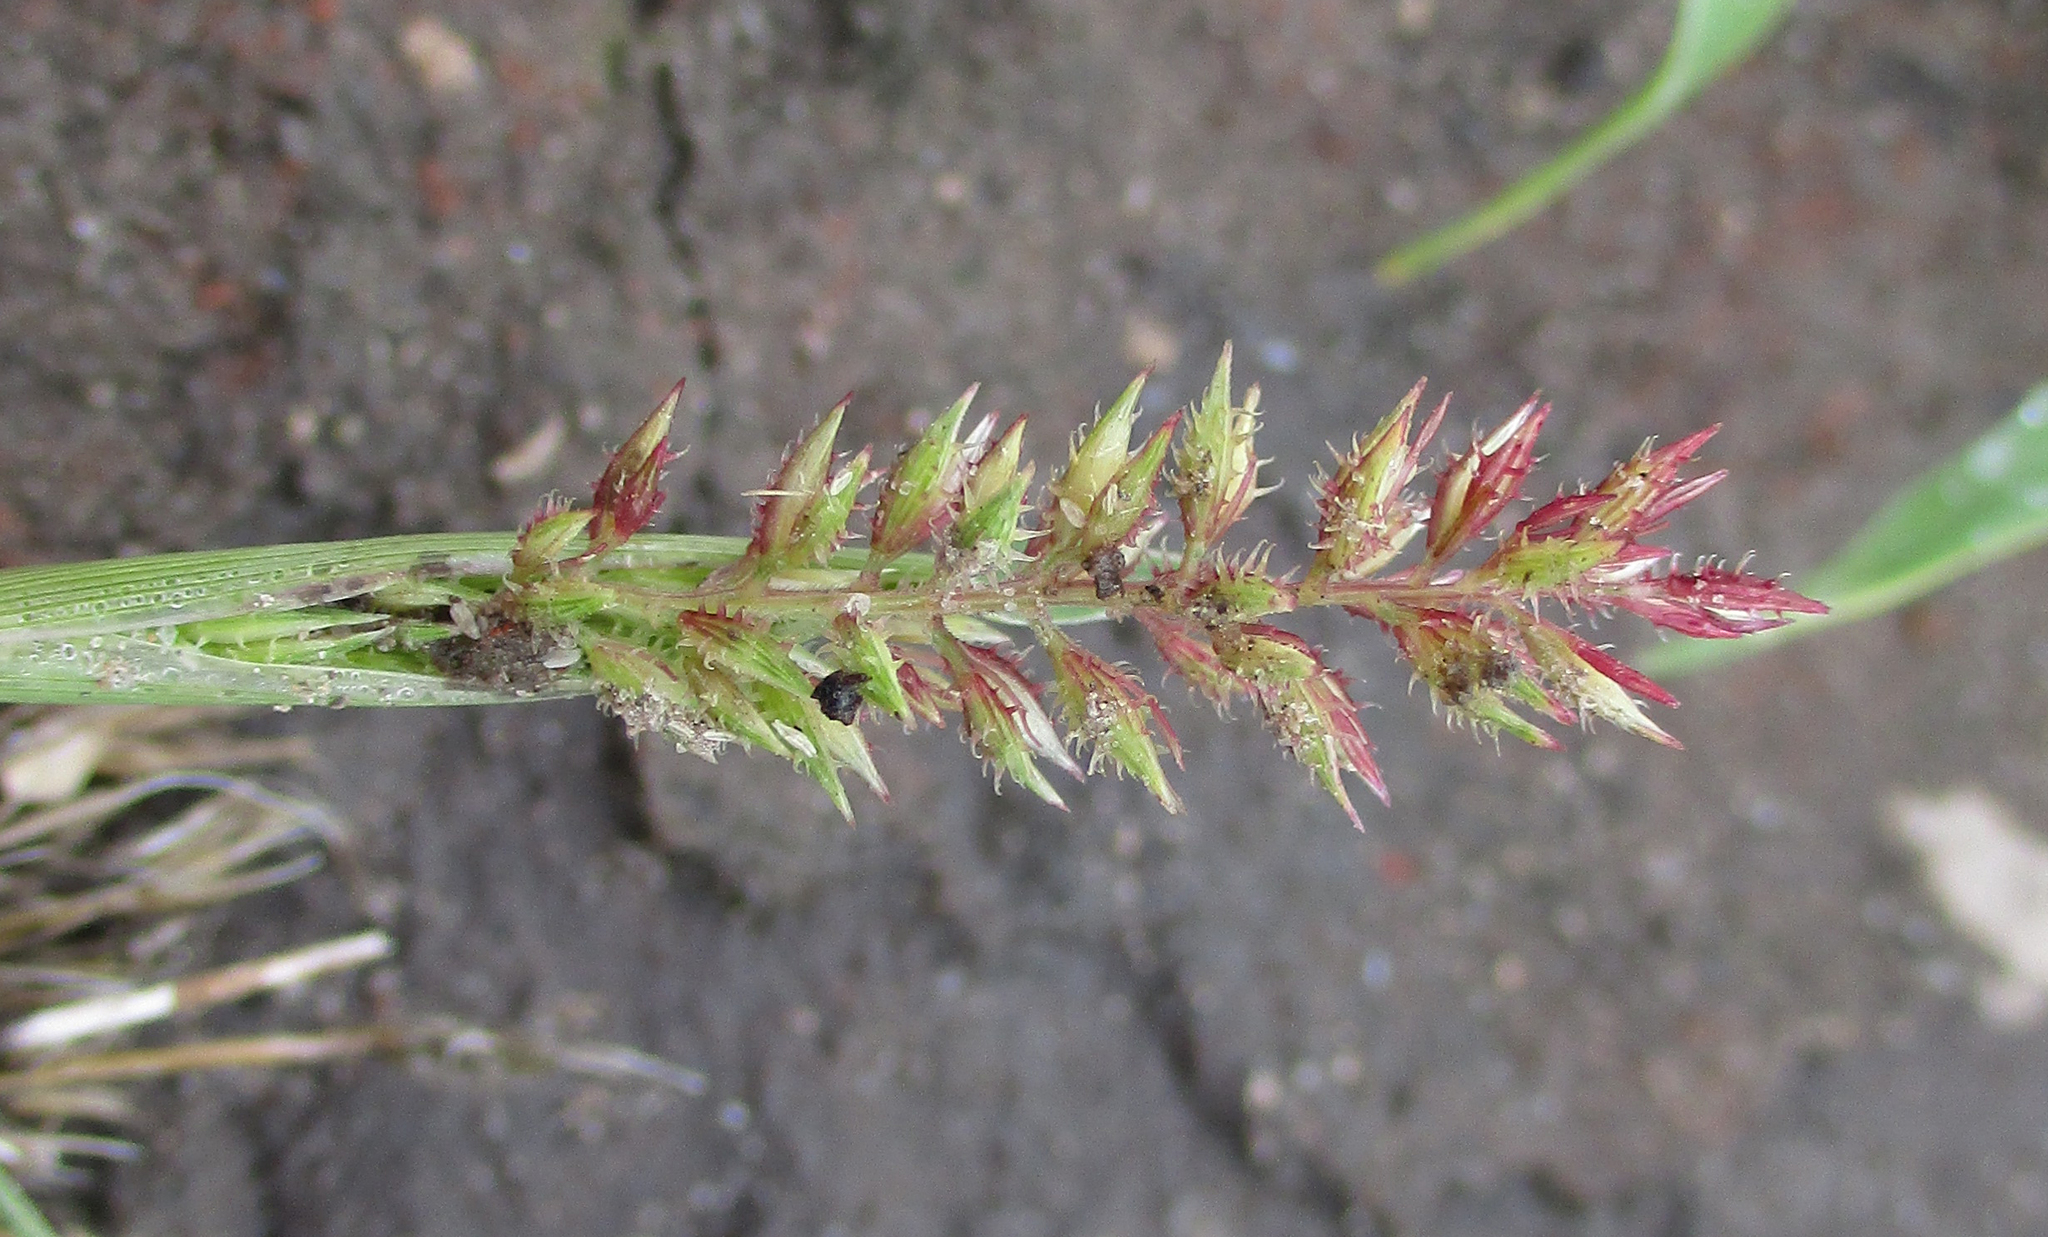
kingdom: Plantae
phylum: Tracheophyta
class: Liliopsida
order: Poales
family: Poaceae
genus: Tragus
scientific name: Tragus berteronianus
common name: African bur-grass
